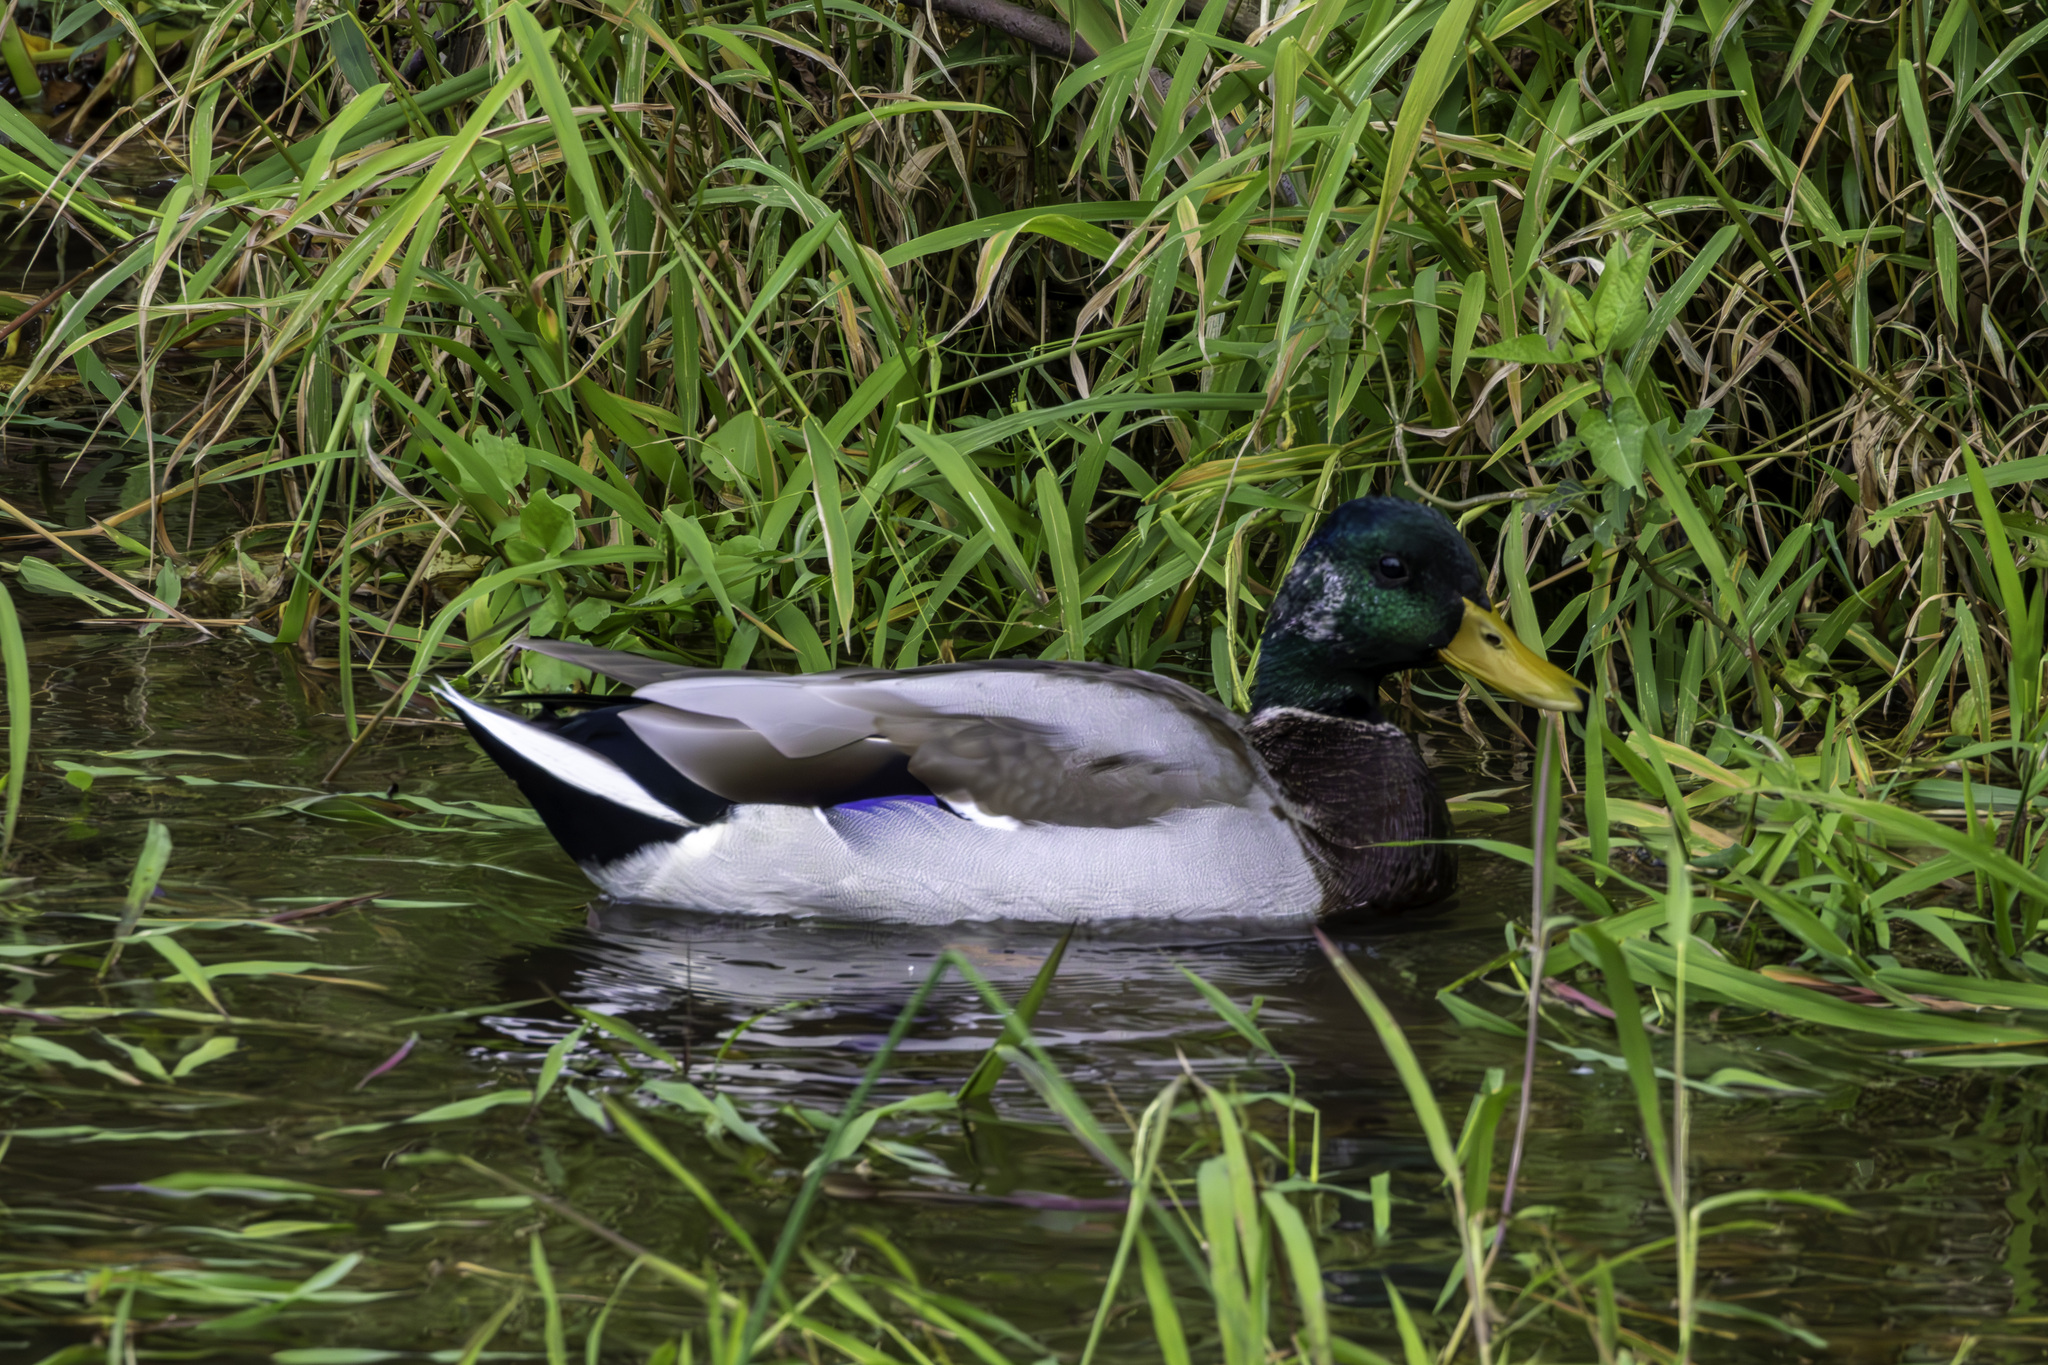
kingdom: Animalia
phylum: Chordata
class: Aves
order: Anseriformes
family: Anatidae
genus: Anas
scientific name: Anas platyrhynchos
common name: Mallard
